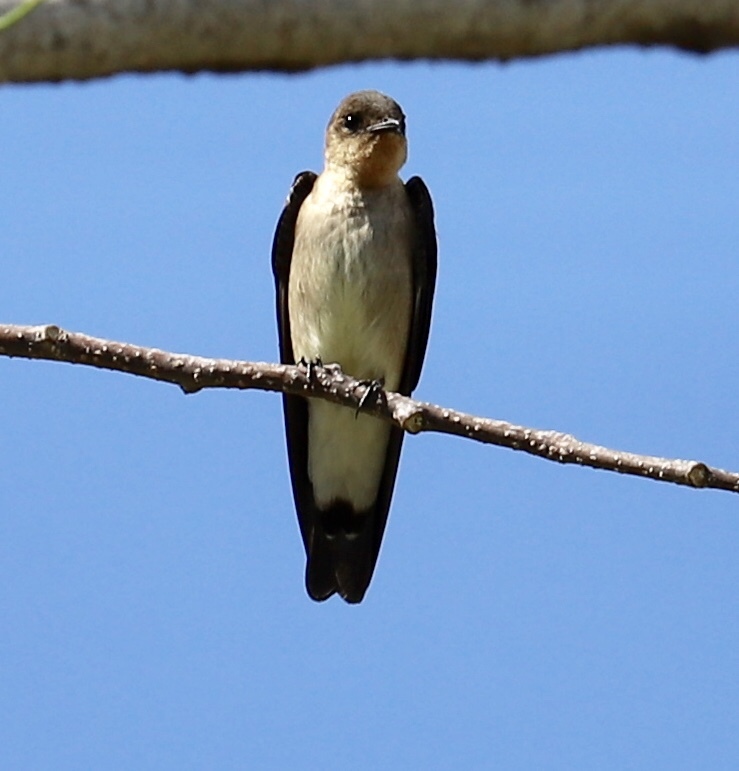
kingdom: Animalia
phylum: Chordata
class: Aves
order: Passeriformes
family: Hirundinidae
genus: Stelgidopteryx
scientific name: Stelgidopteryx ruficollis
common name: Southern rough-winged swallow
